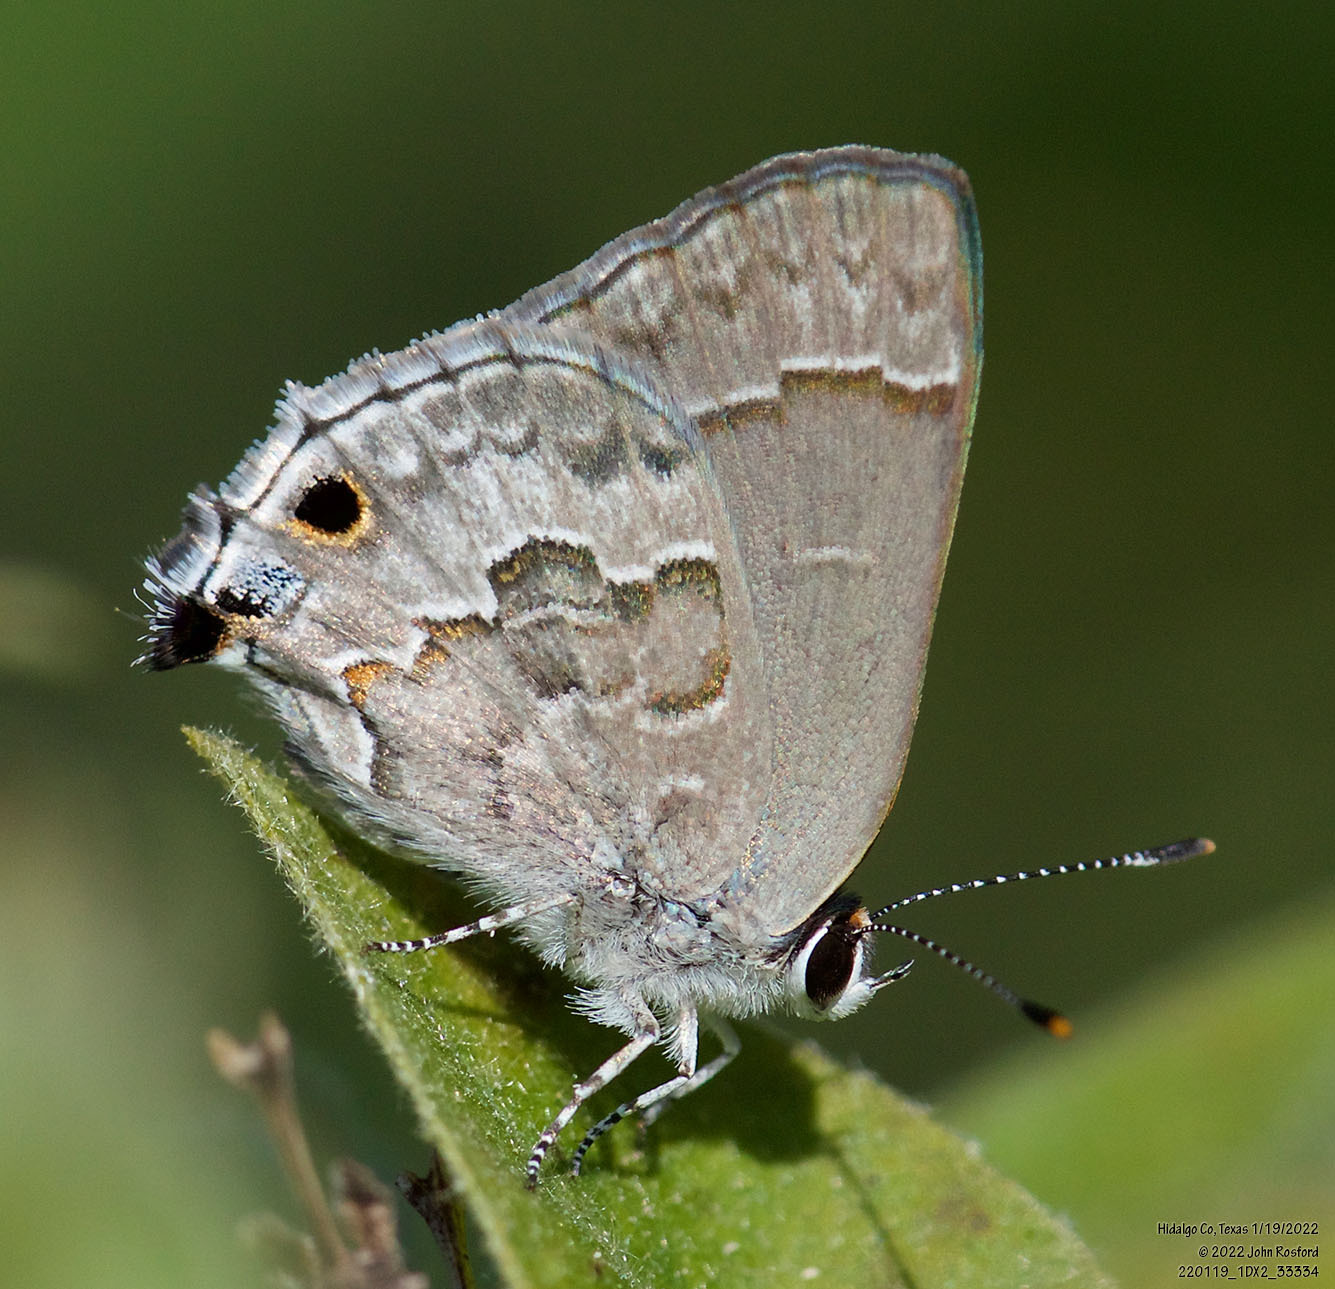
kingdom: Animalia
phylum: Arthropoda
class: Insecta
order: Lepidoptera
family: Lycaenidae
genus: Strymon
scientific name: Strymon alea
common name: Lacey's scrub-hairstreak
